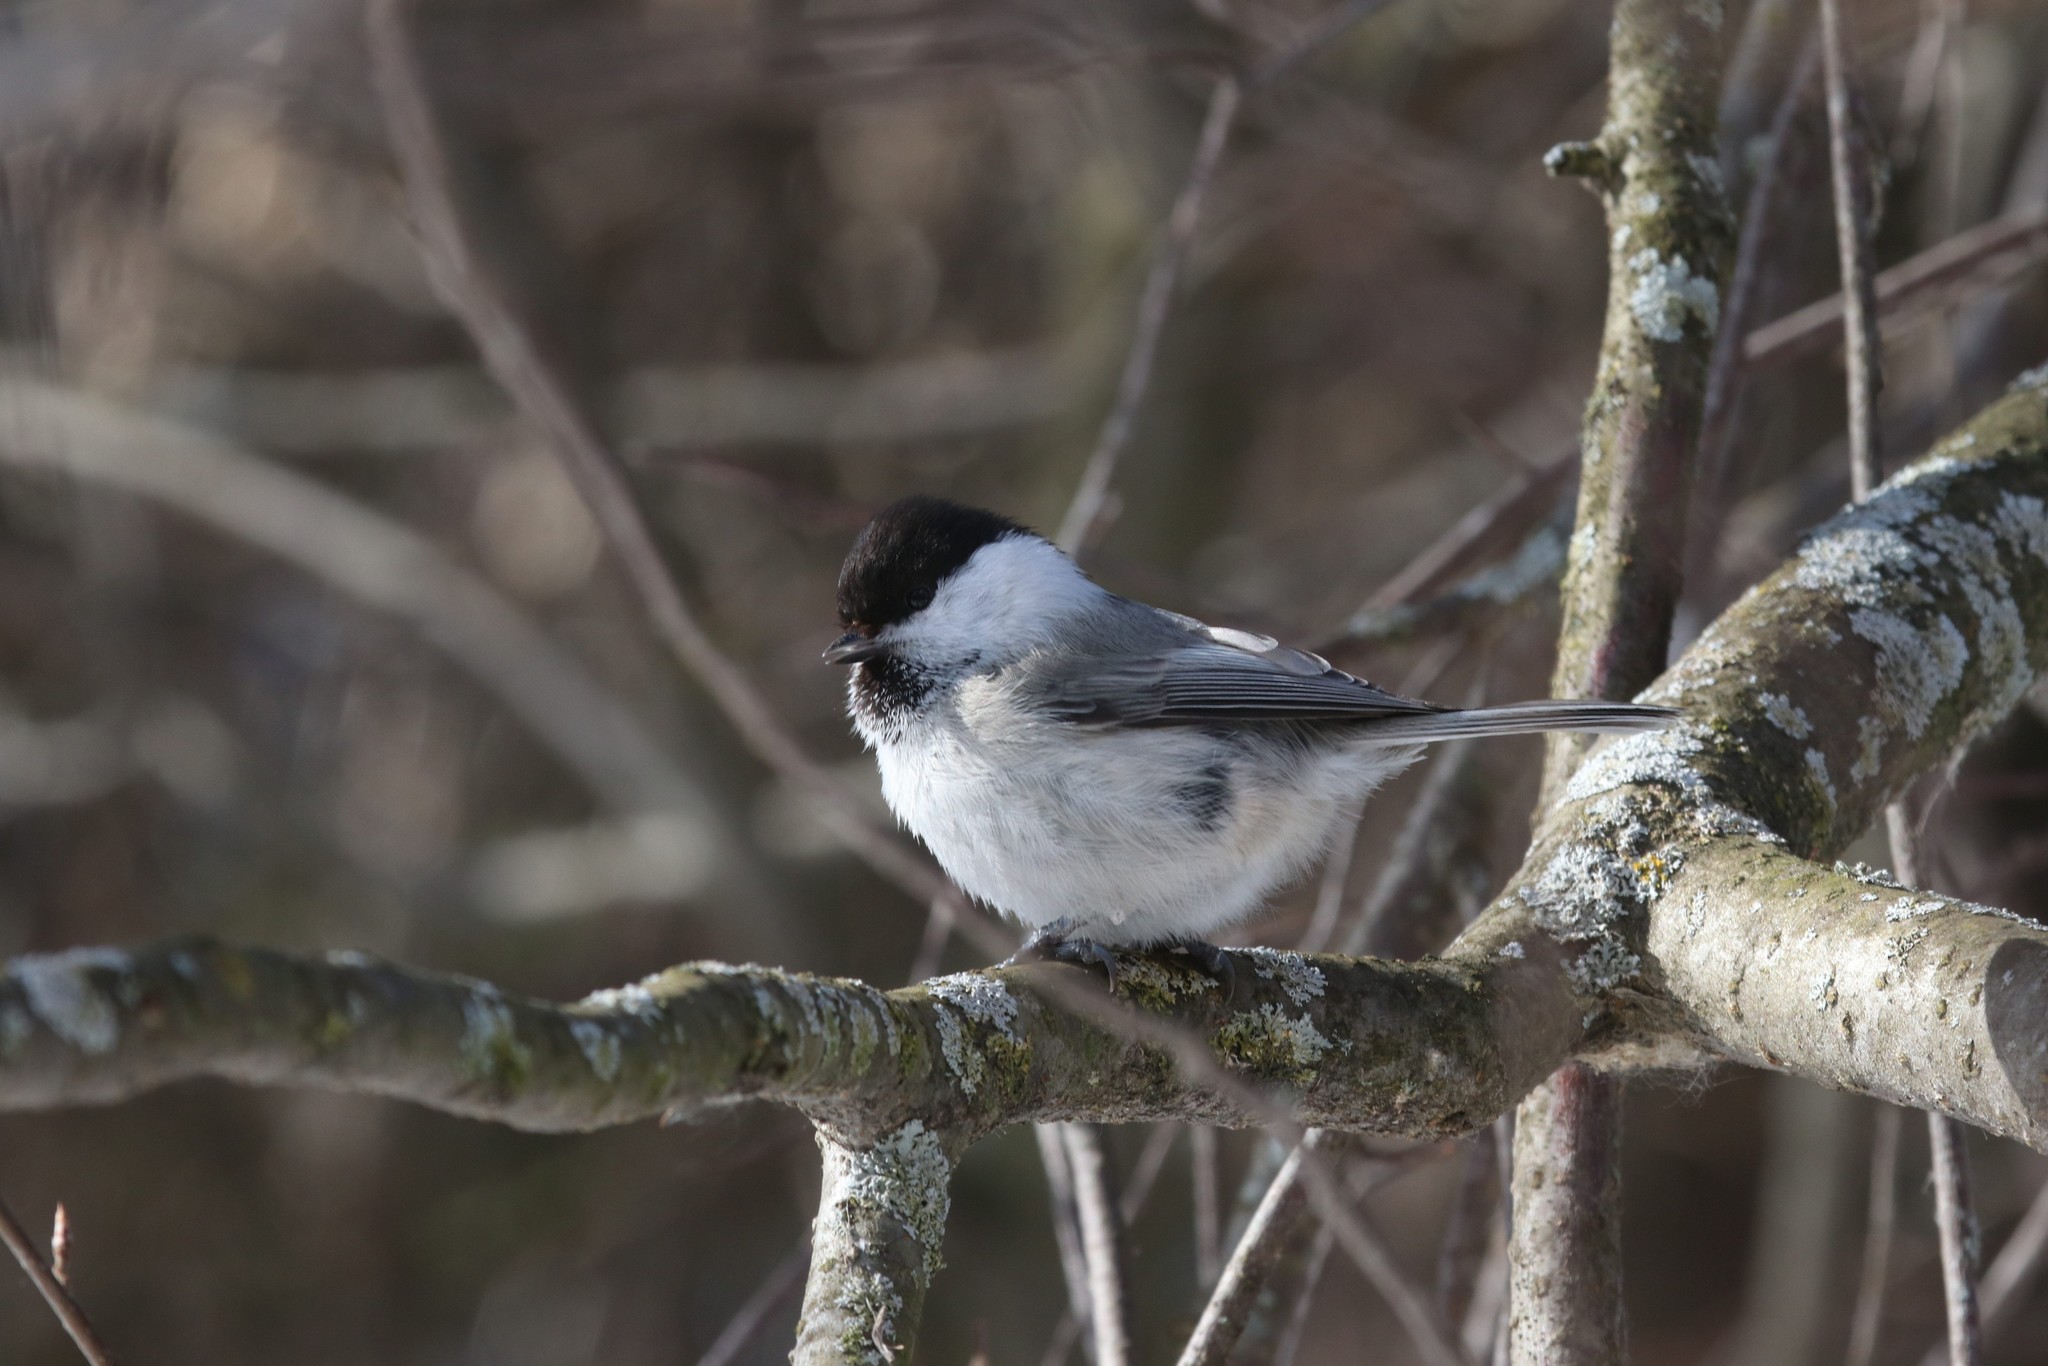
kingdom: Animalia
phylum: Chordata
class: Aves
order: Passeriformes
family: Paridae
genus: Poecile
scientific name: Poecile montanus
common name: Willow tit
